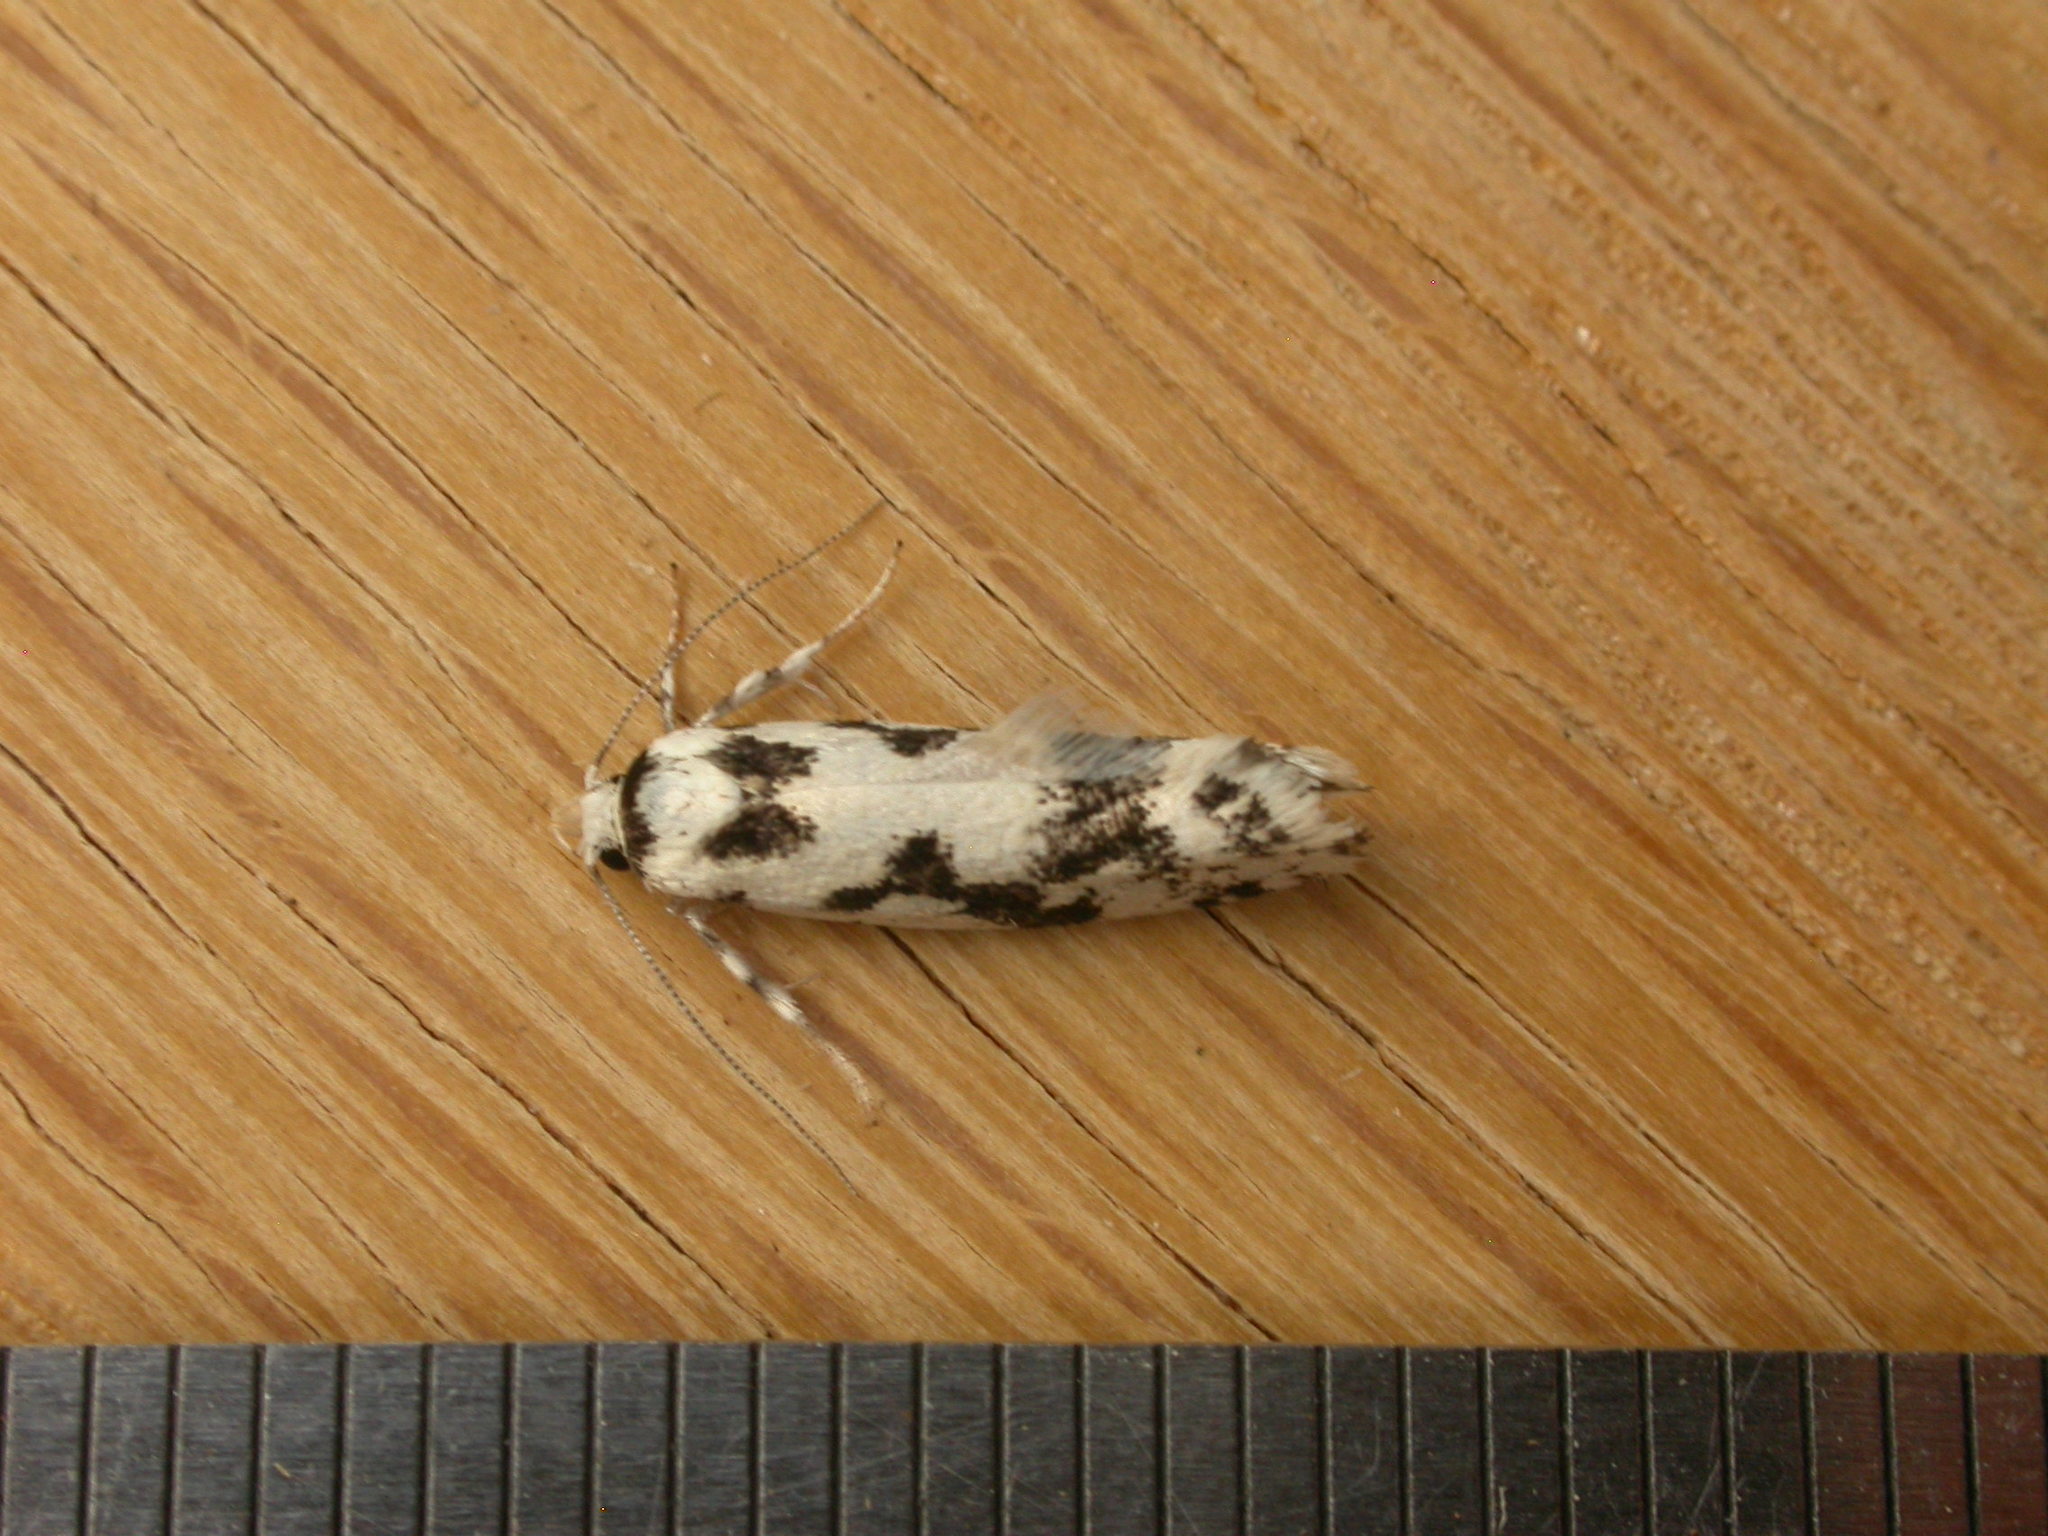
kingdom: Animalia
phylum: Arthropoda
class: Insecta
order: Lepidoptera
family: Xyloryctidae
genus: Lichenaula
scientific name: Lichenaula calligrapha
